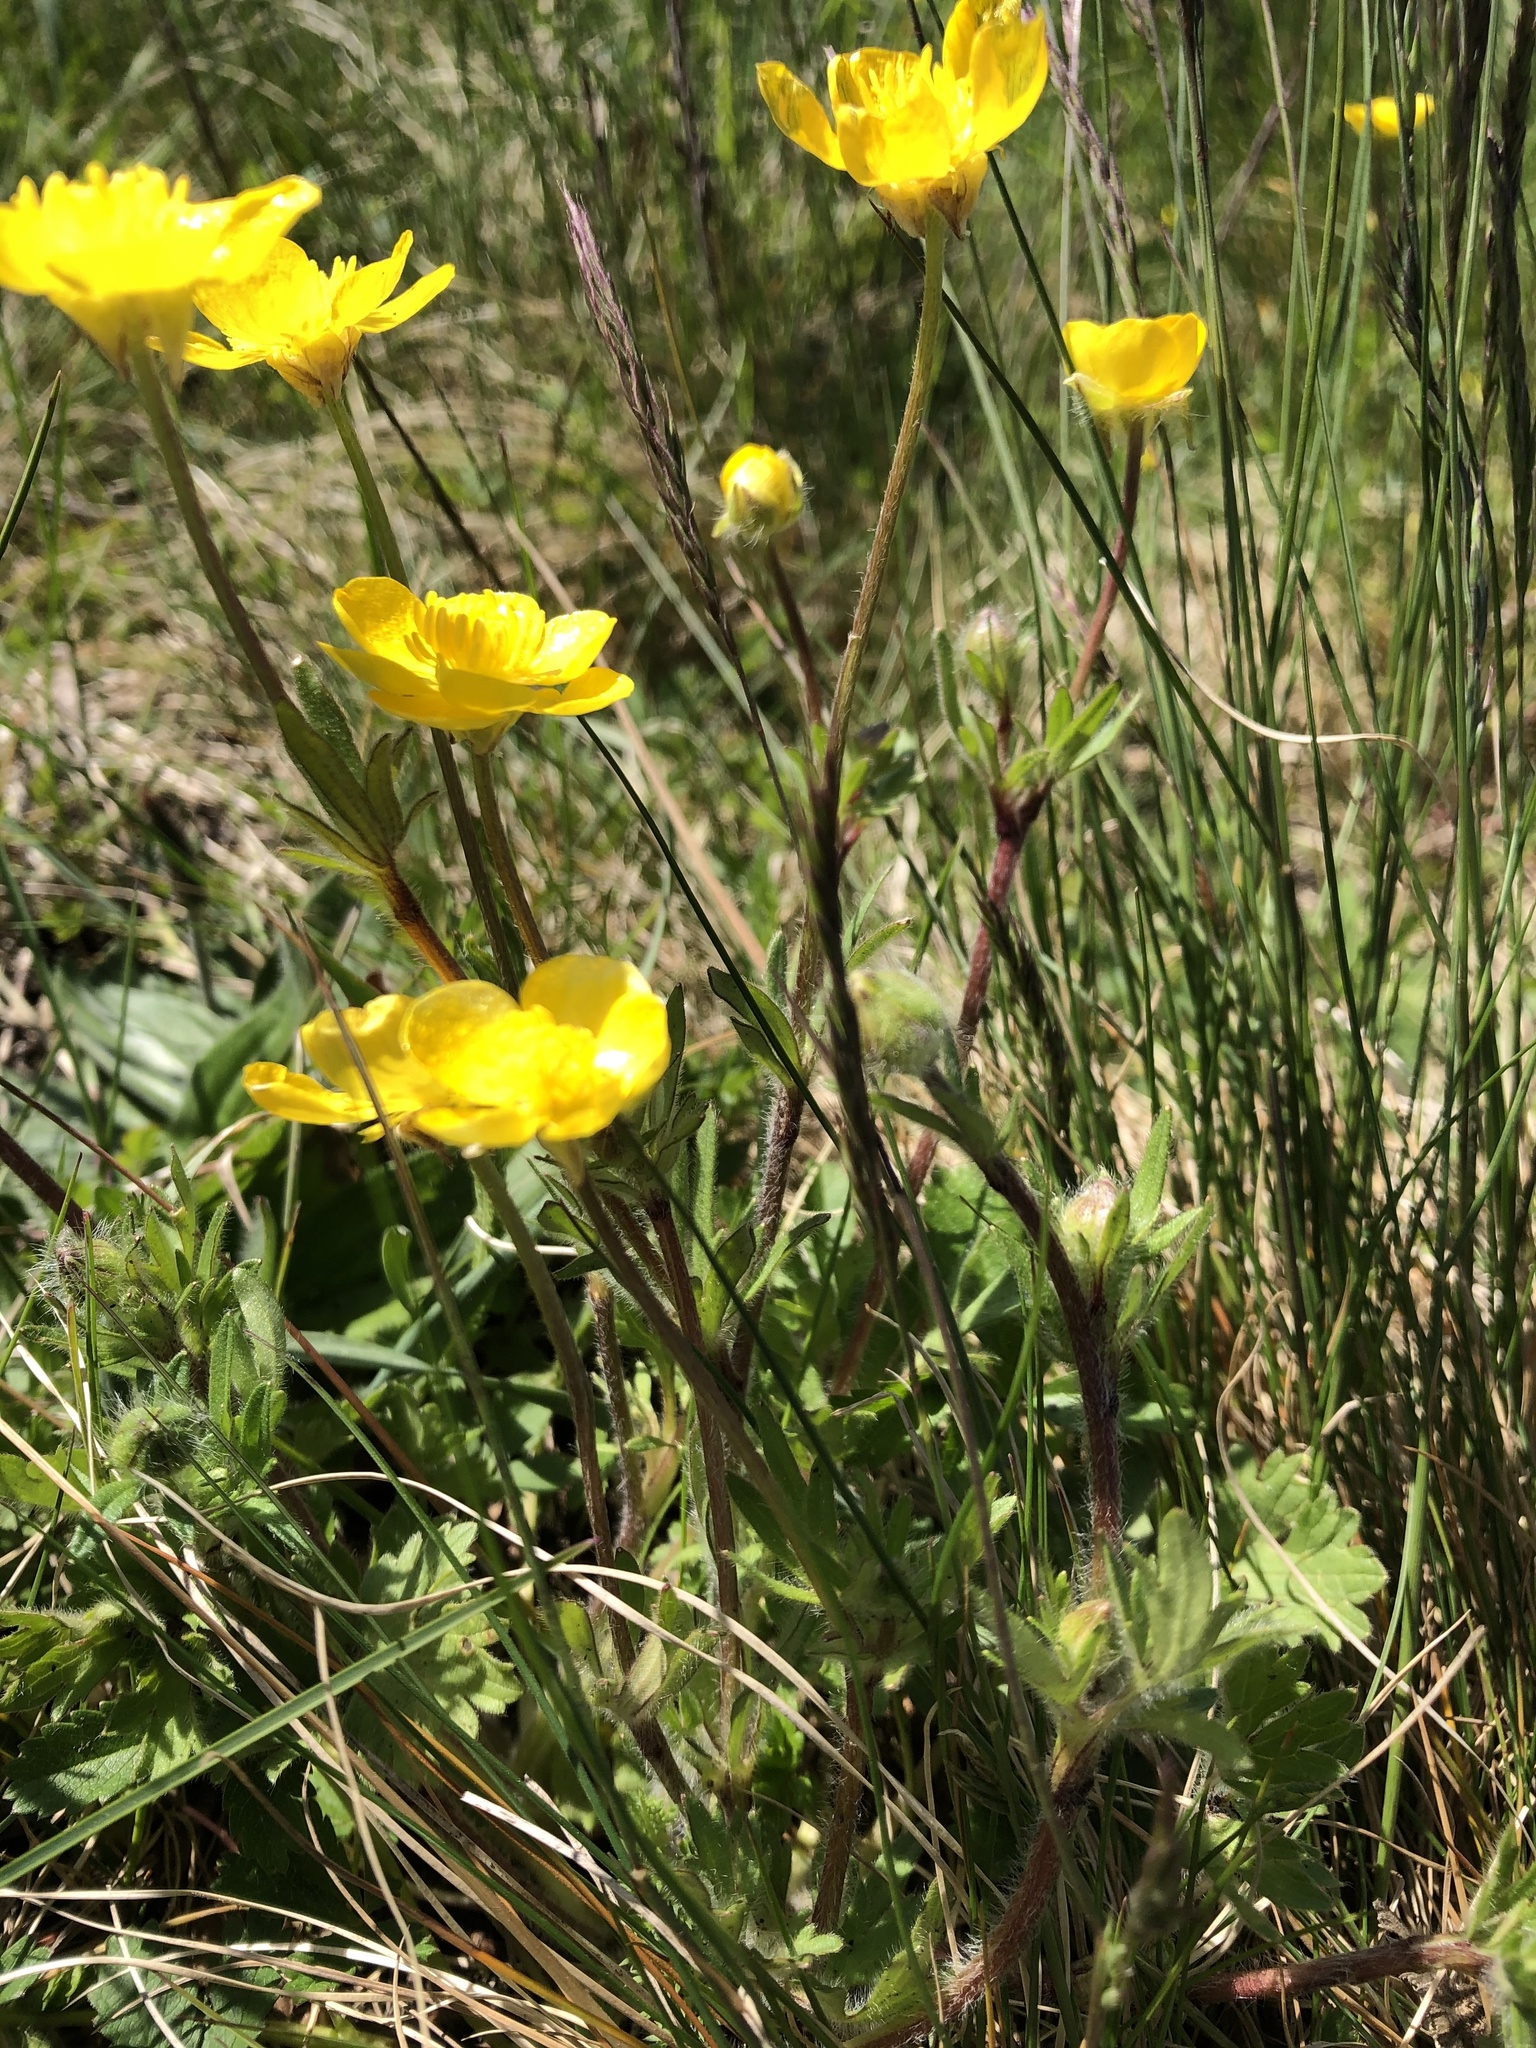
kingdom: Plantae
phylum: Tracheophyta
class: Magnoliopsida
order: Ranunculales
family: Ranunculaceae
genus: Ranunculus
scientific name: Ranunculus bulbosus
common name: Bulbous buttercup
